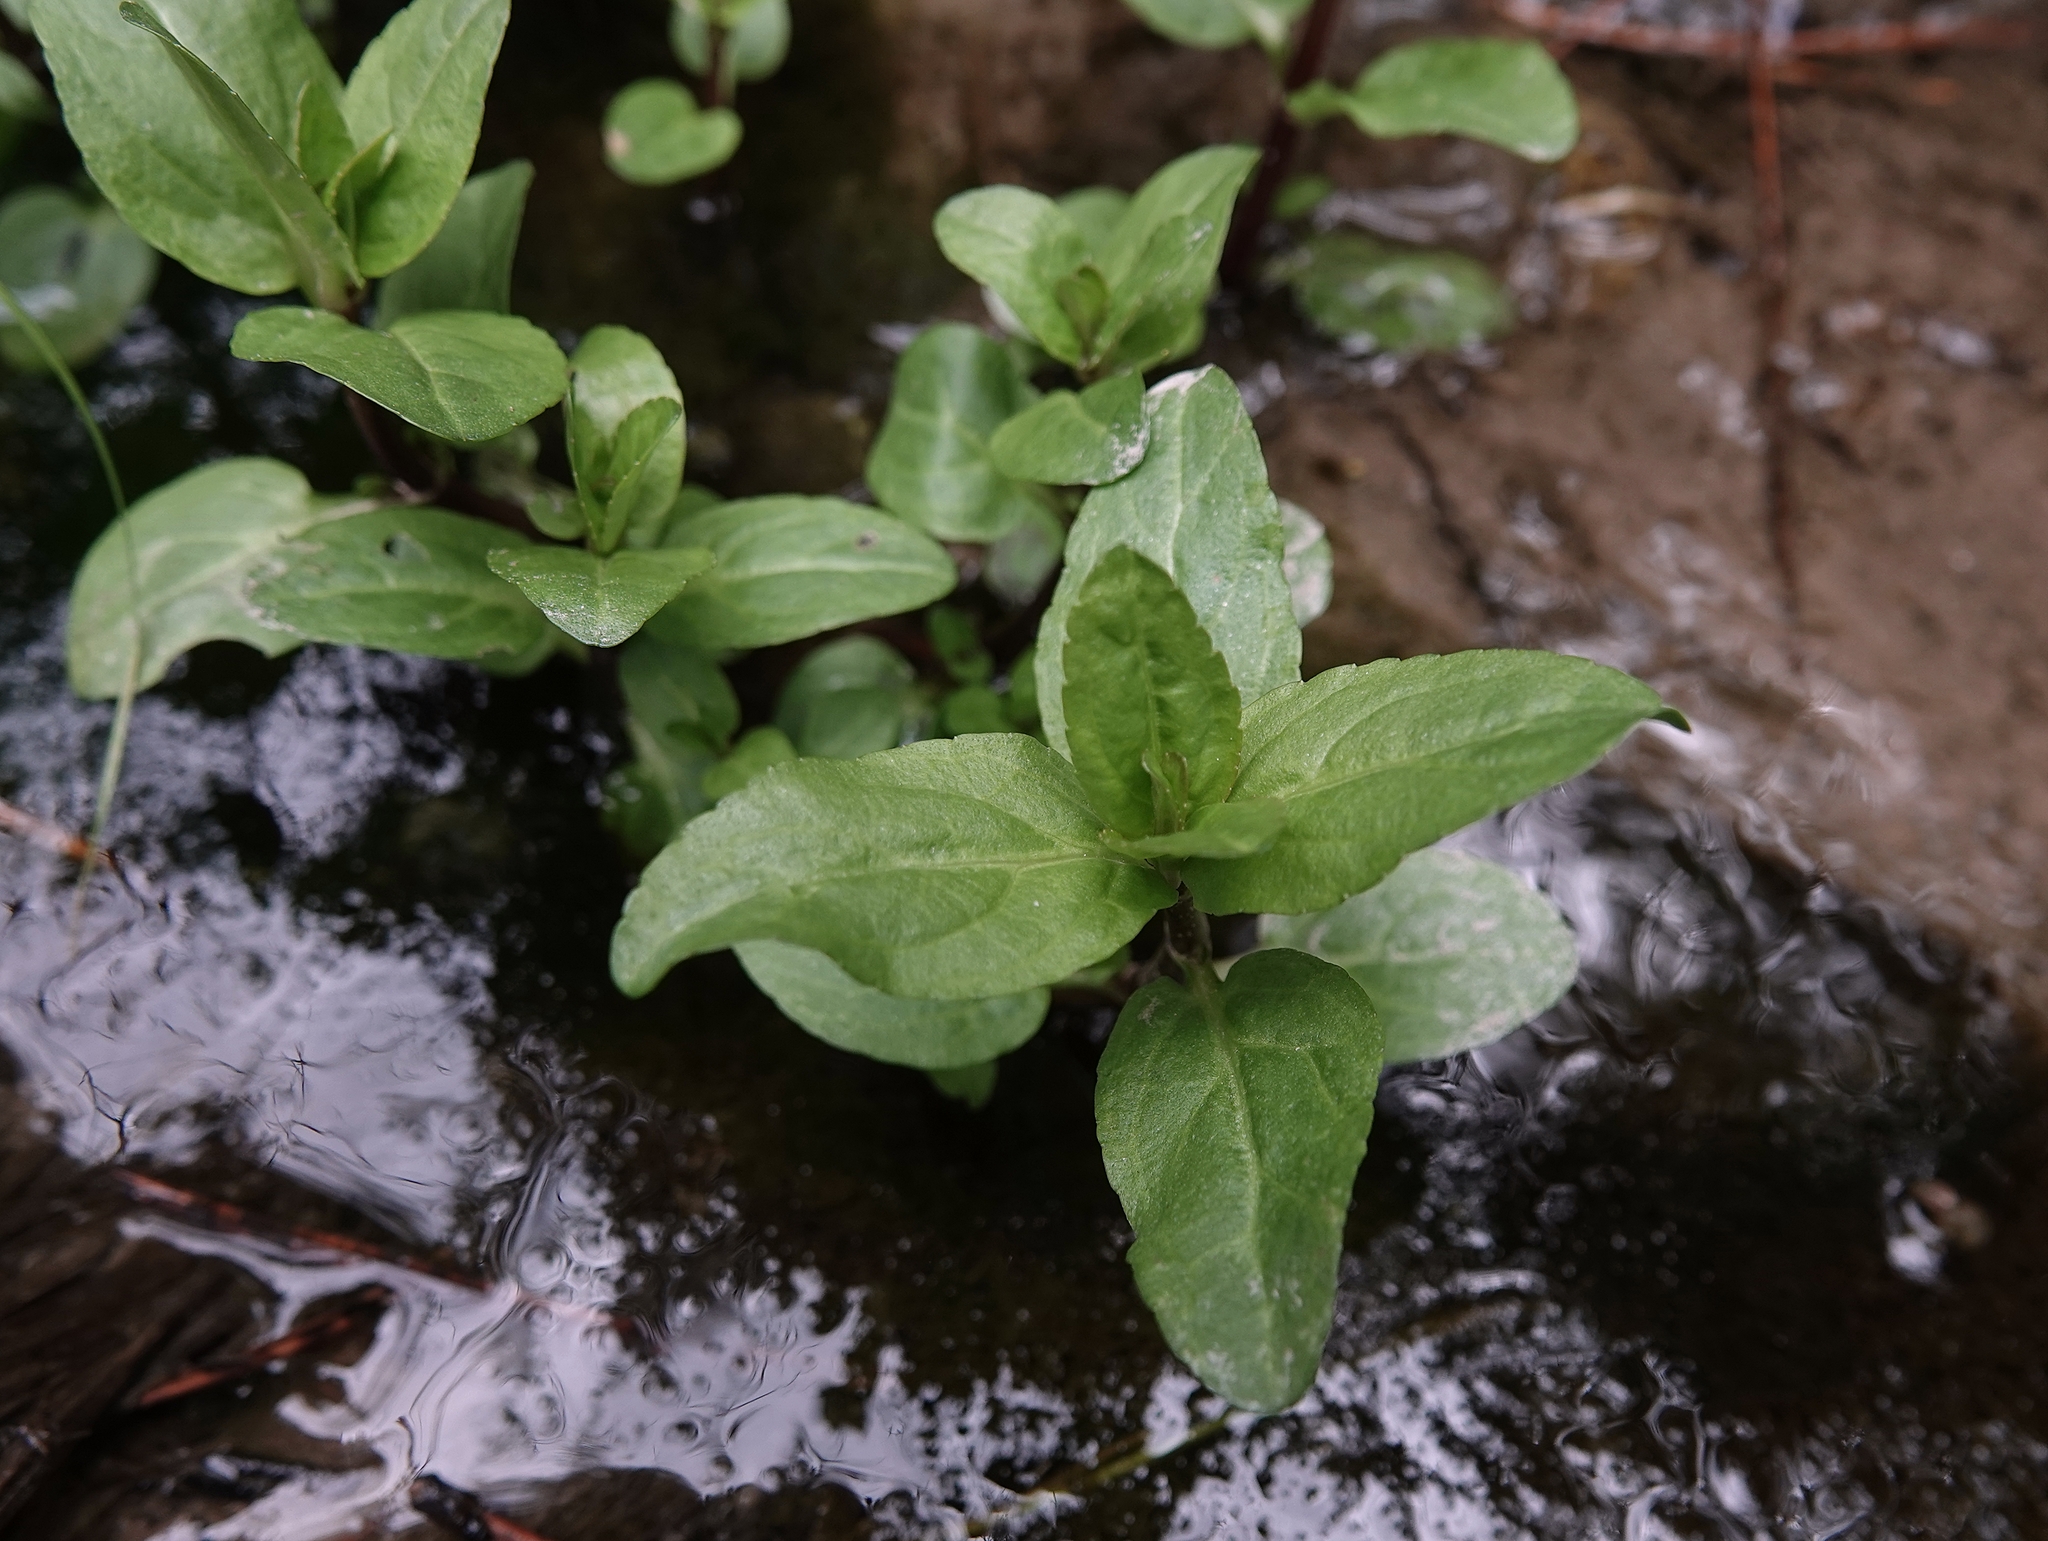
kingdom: Plantae
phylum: Tracheophyta
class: Magnoliopsida
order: Lamiales
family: Plantaginaceae
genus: Veronica
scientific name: Veronica anagallis-aquatica
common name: Water speedwell
